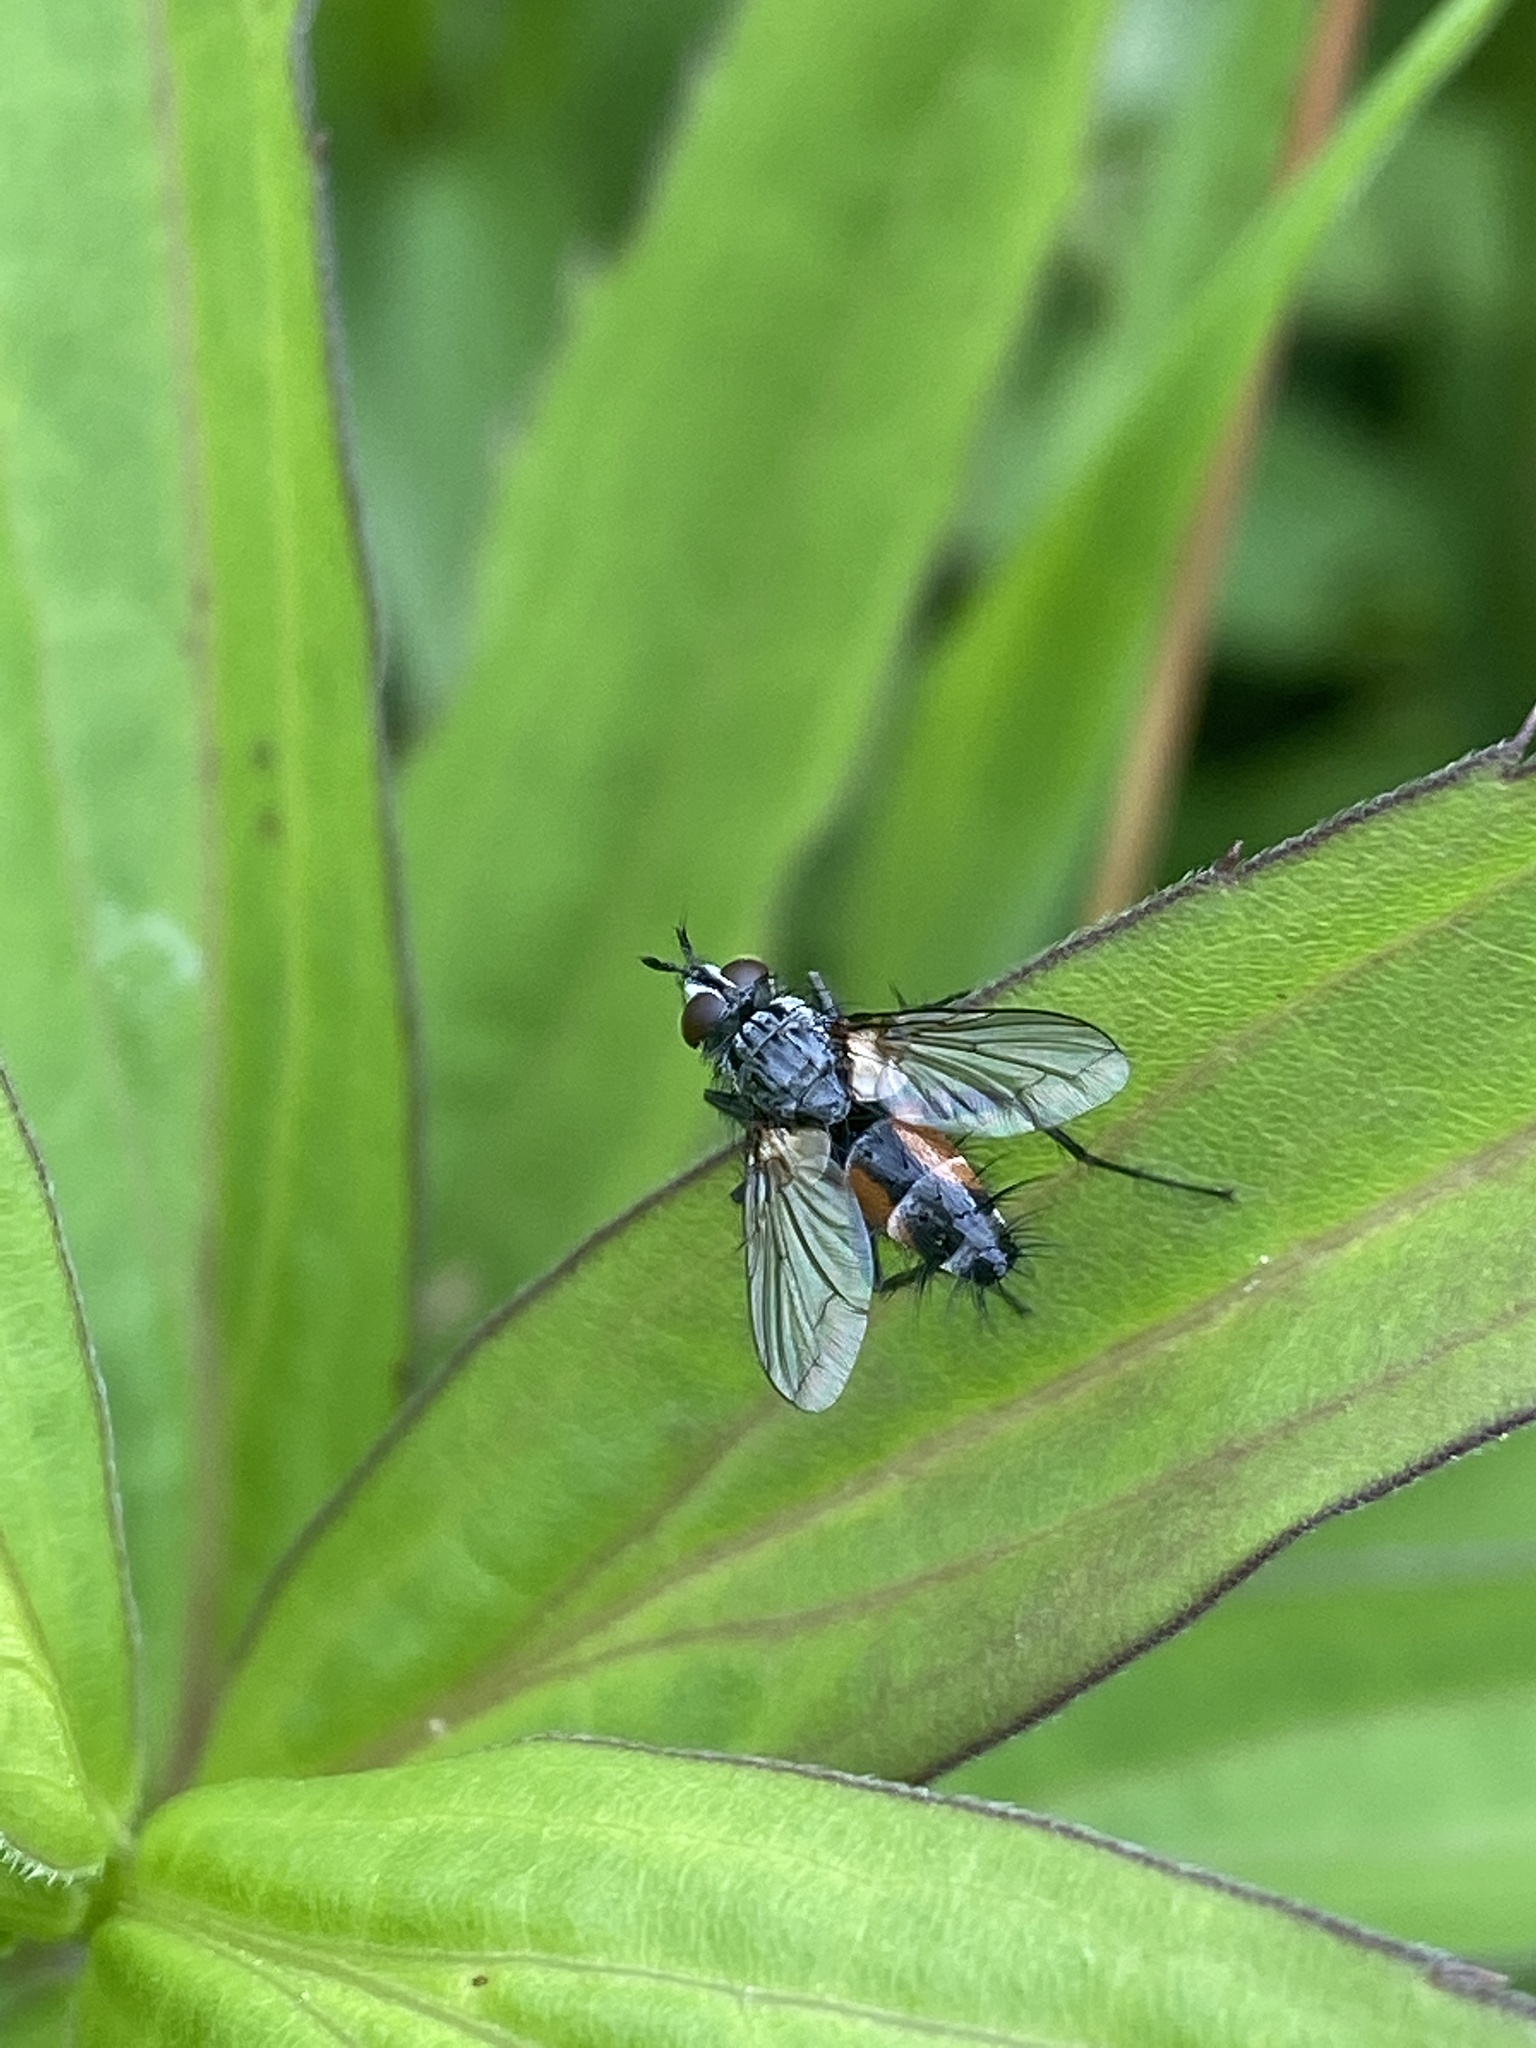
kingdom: Animalia
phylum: Arthropoda
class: Insecta
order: Diptera
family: Tachinidae
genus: Eriothrix
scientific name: Eriothrix rufomaculatus
